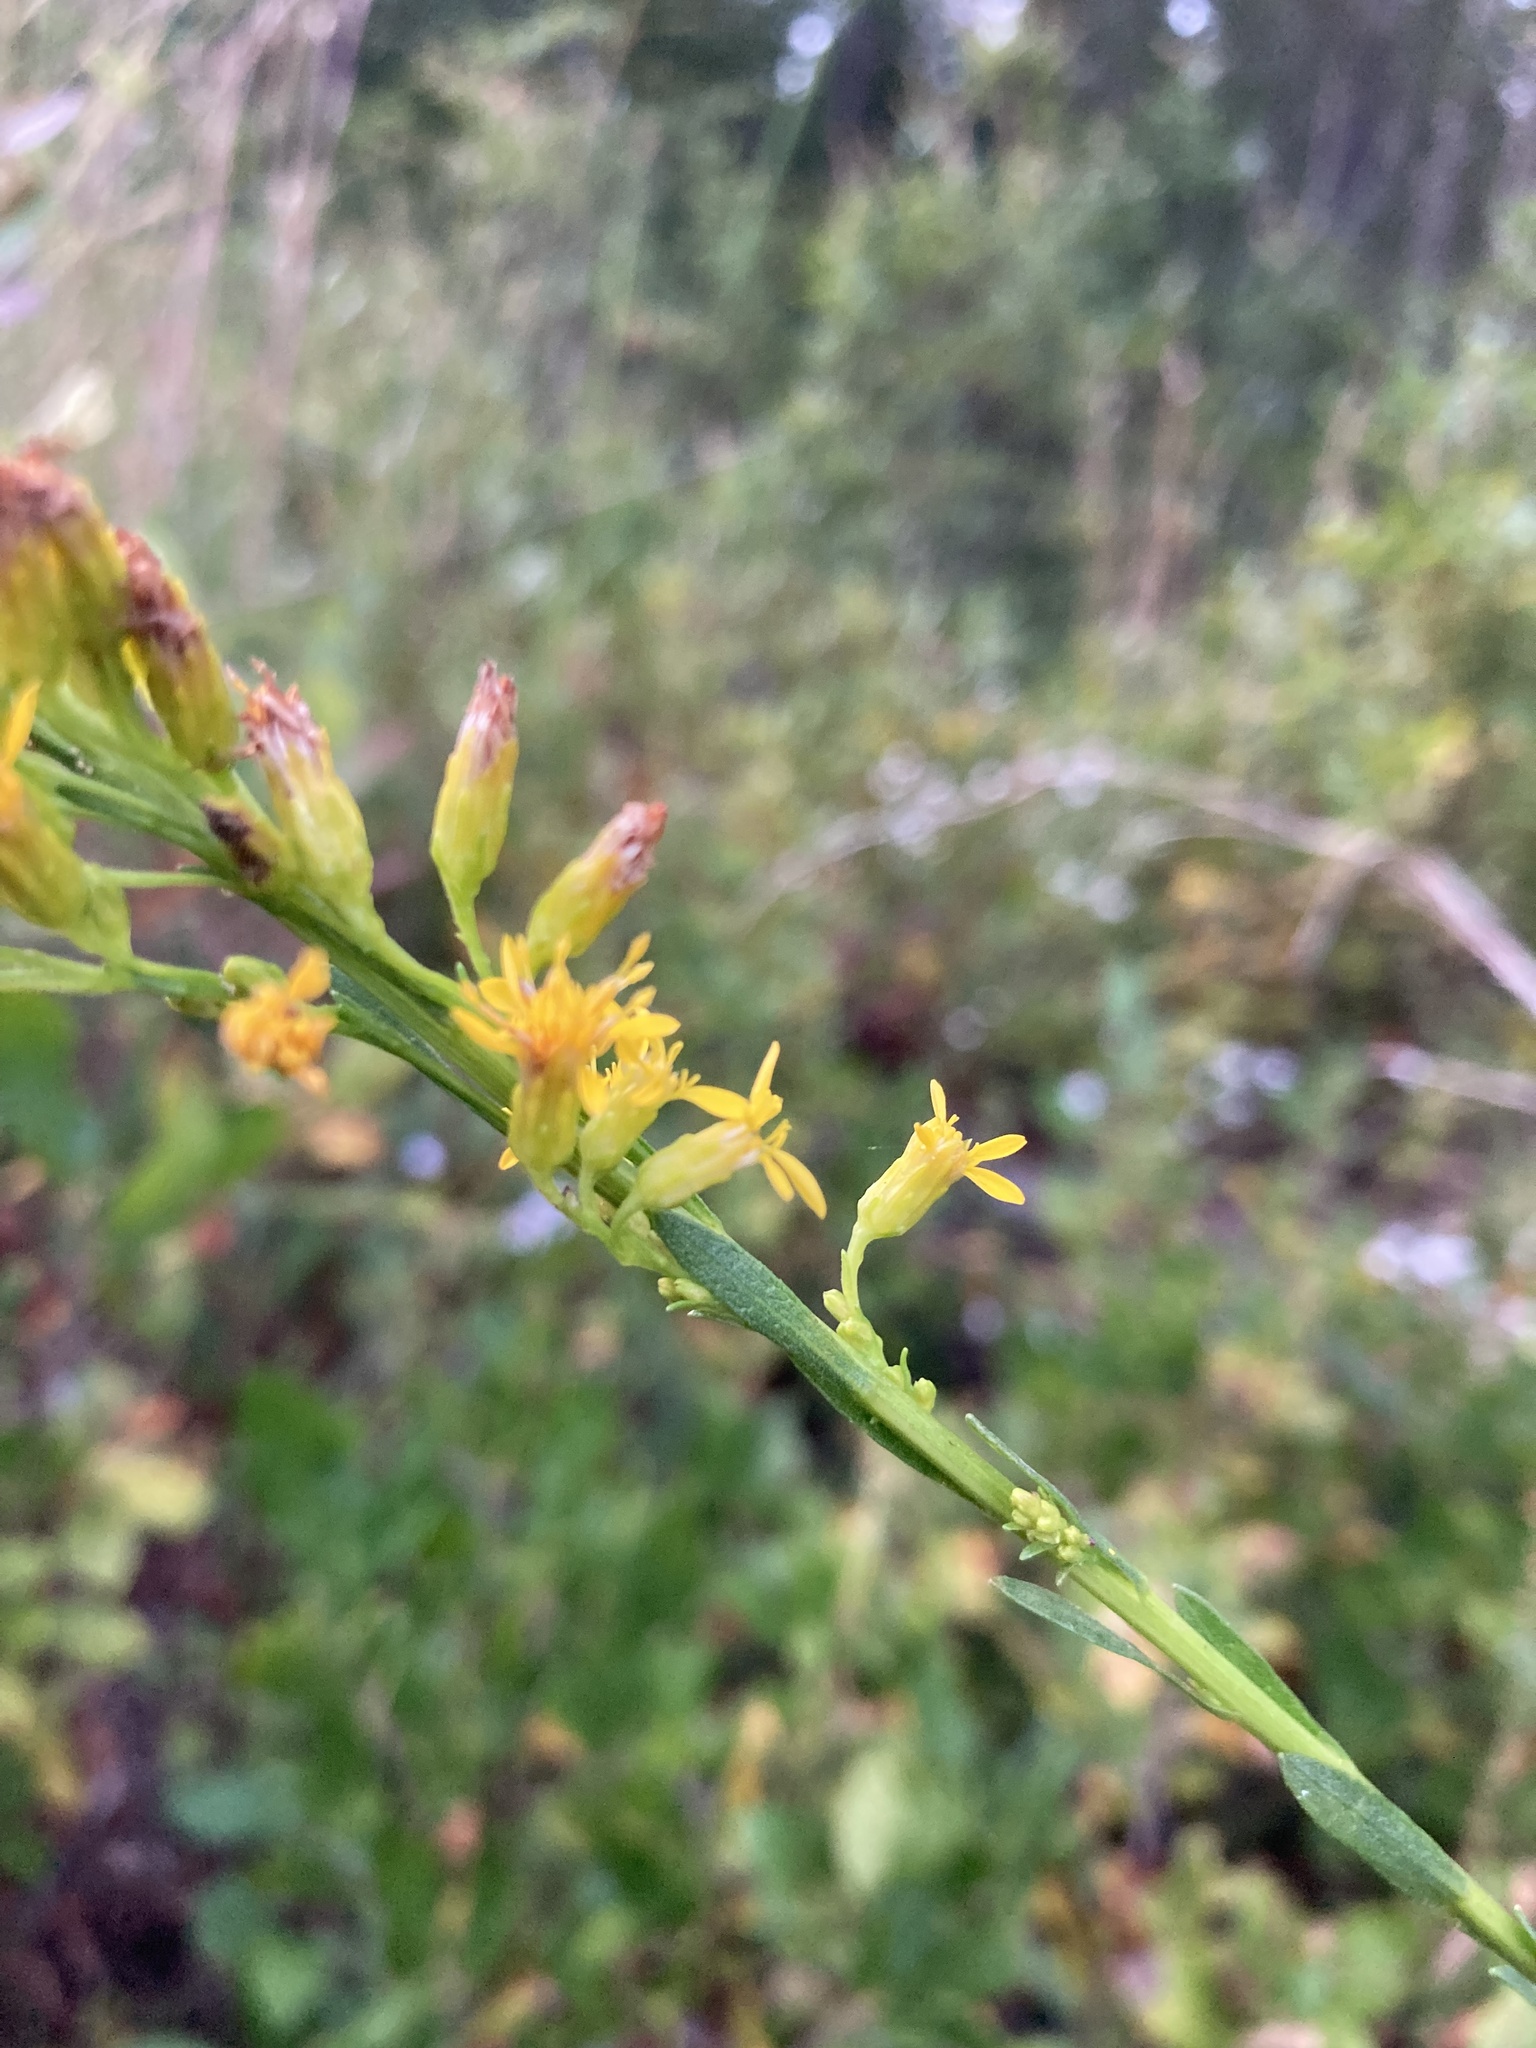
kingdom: Plantae
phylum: Tracheophyta
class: Magnoliopsida
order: Asterales
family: Asteraceae
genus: Solidago
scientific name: Solidago stricta
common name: Pine barren bog goldenrod
